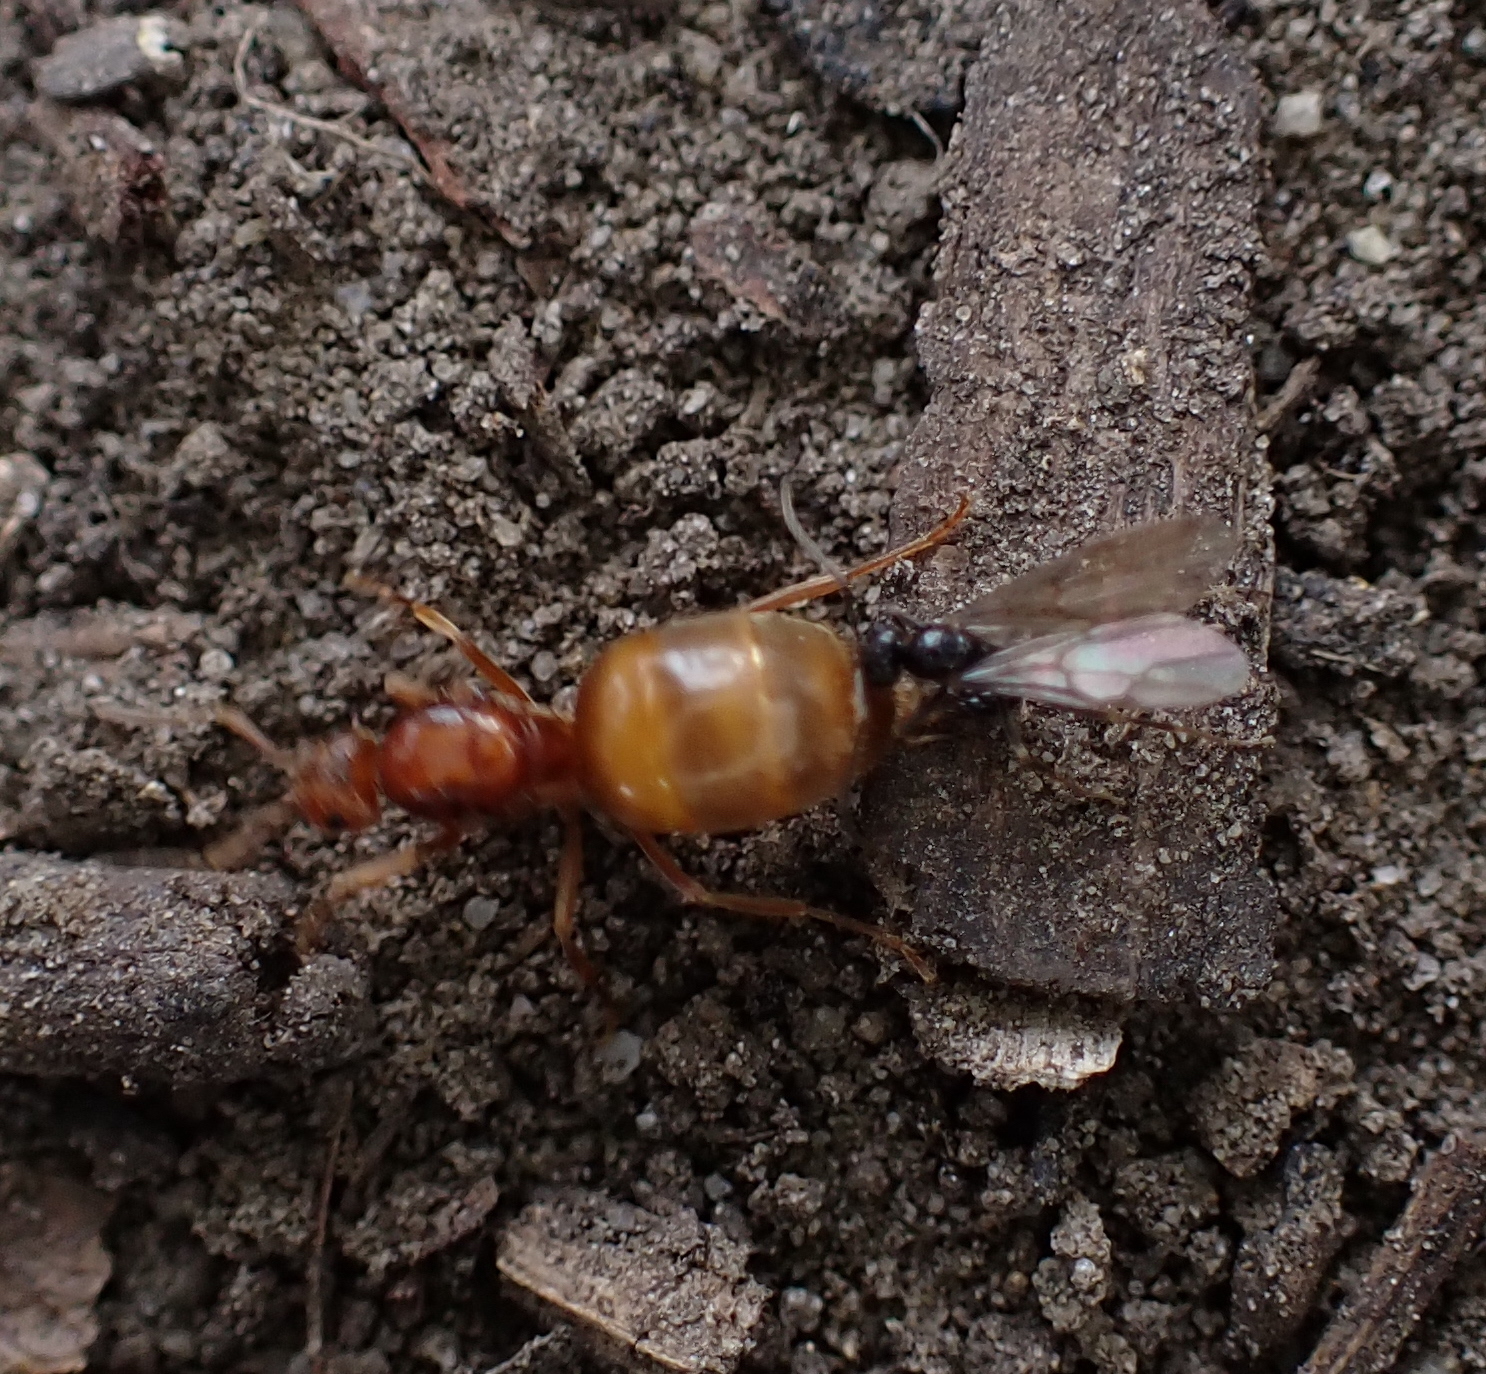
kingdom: Animalia
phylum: Arthropoda
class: Insecta
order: Hymenoptera
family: Formicidae
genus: Prenolepis
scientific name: Prenolepis nitens
